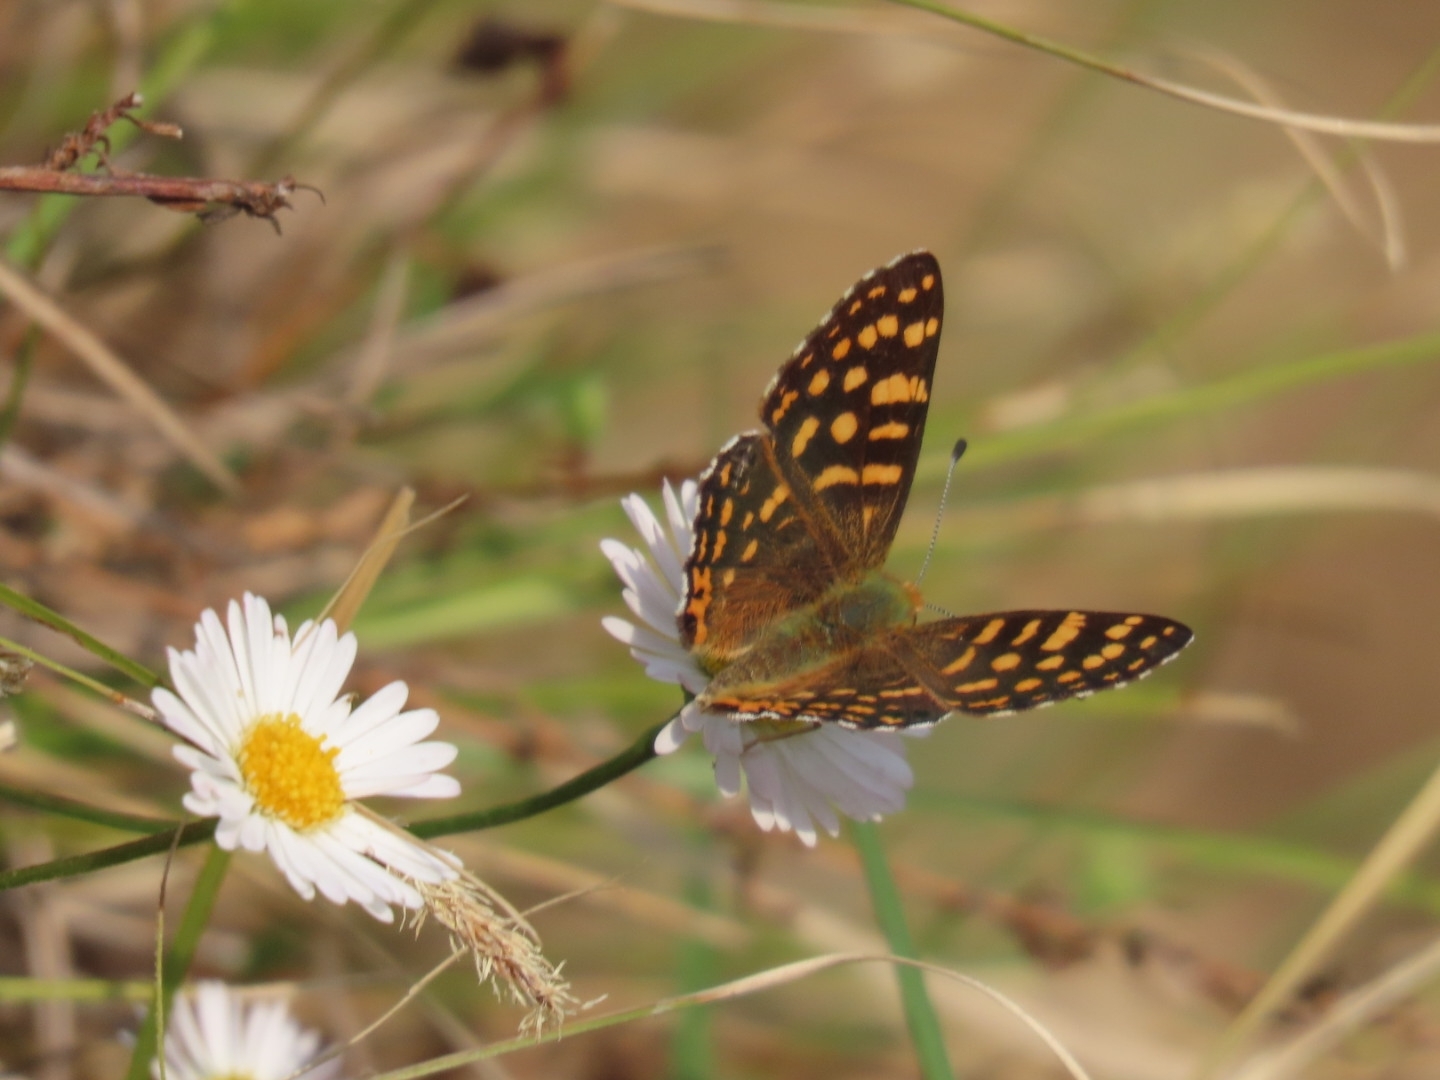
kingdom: Animalia
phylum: Arthropoda
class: Insecta
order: Lepidoptera
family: Lycaenidae
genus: Dodona
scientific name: Dodona durga
